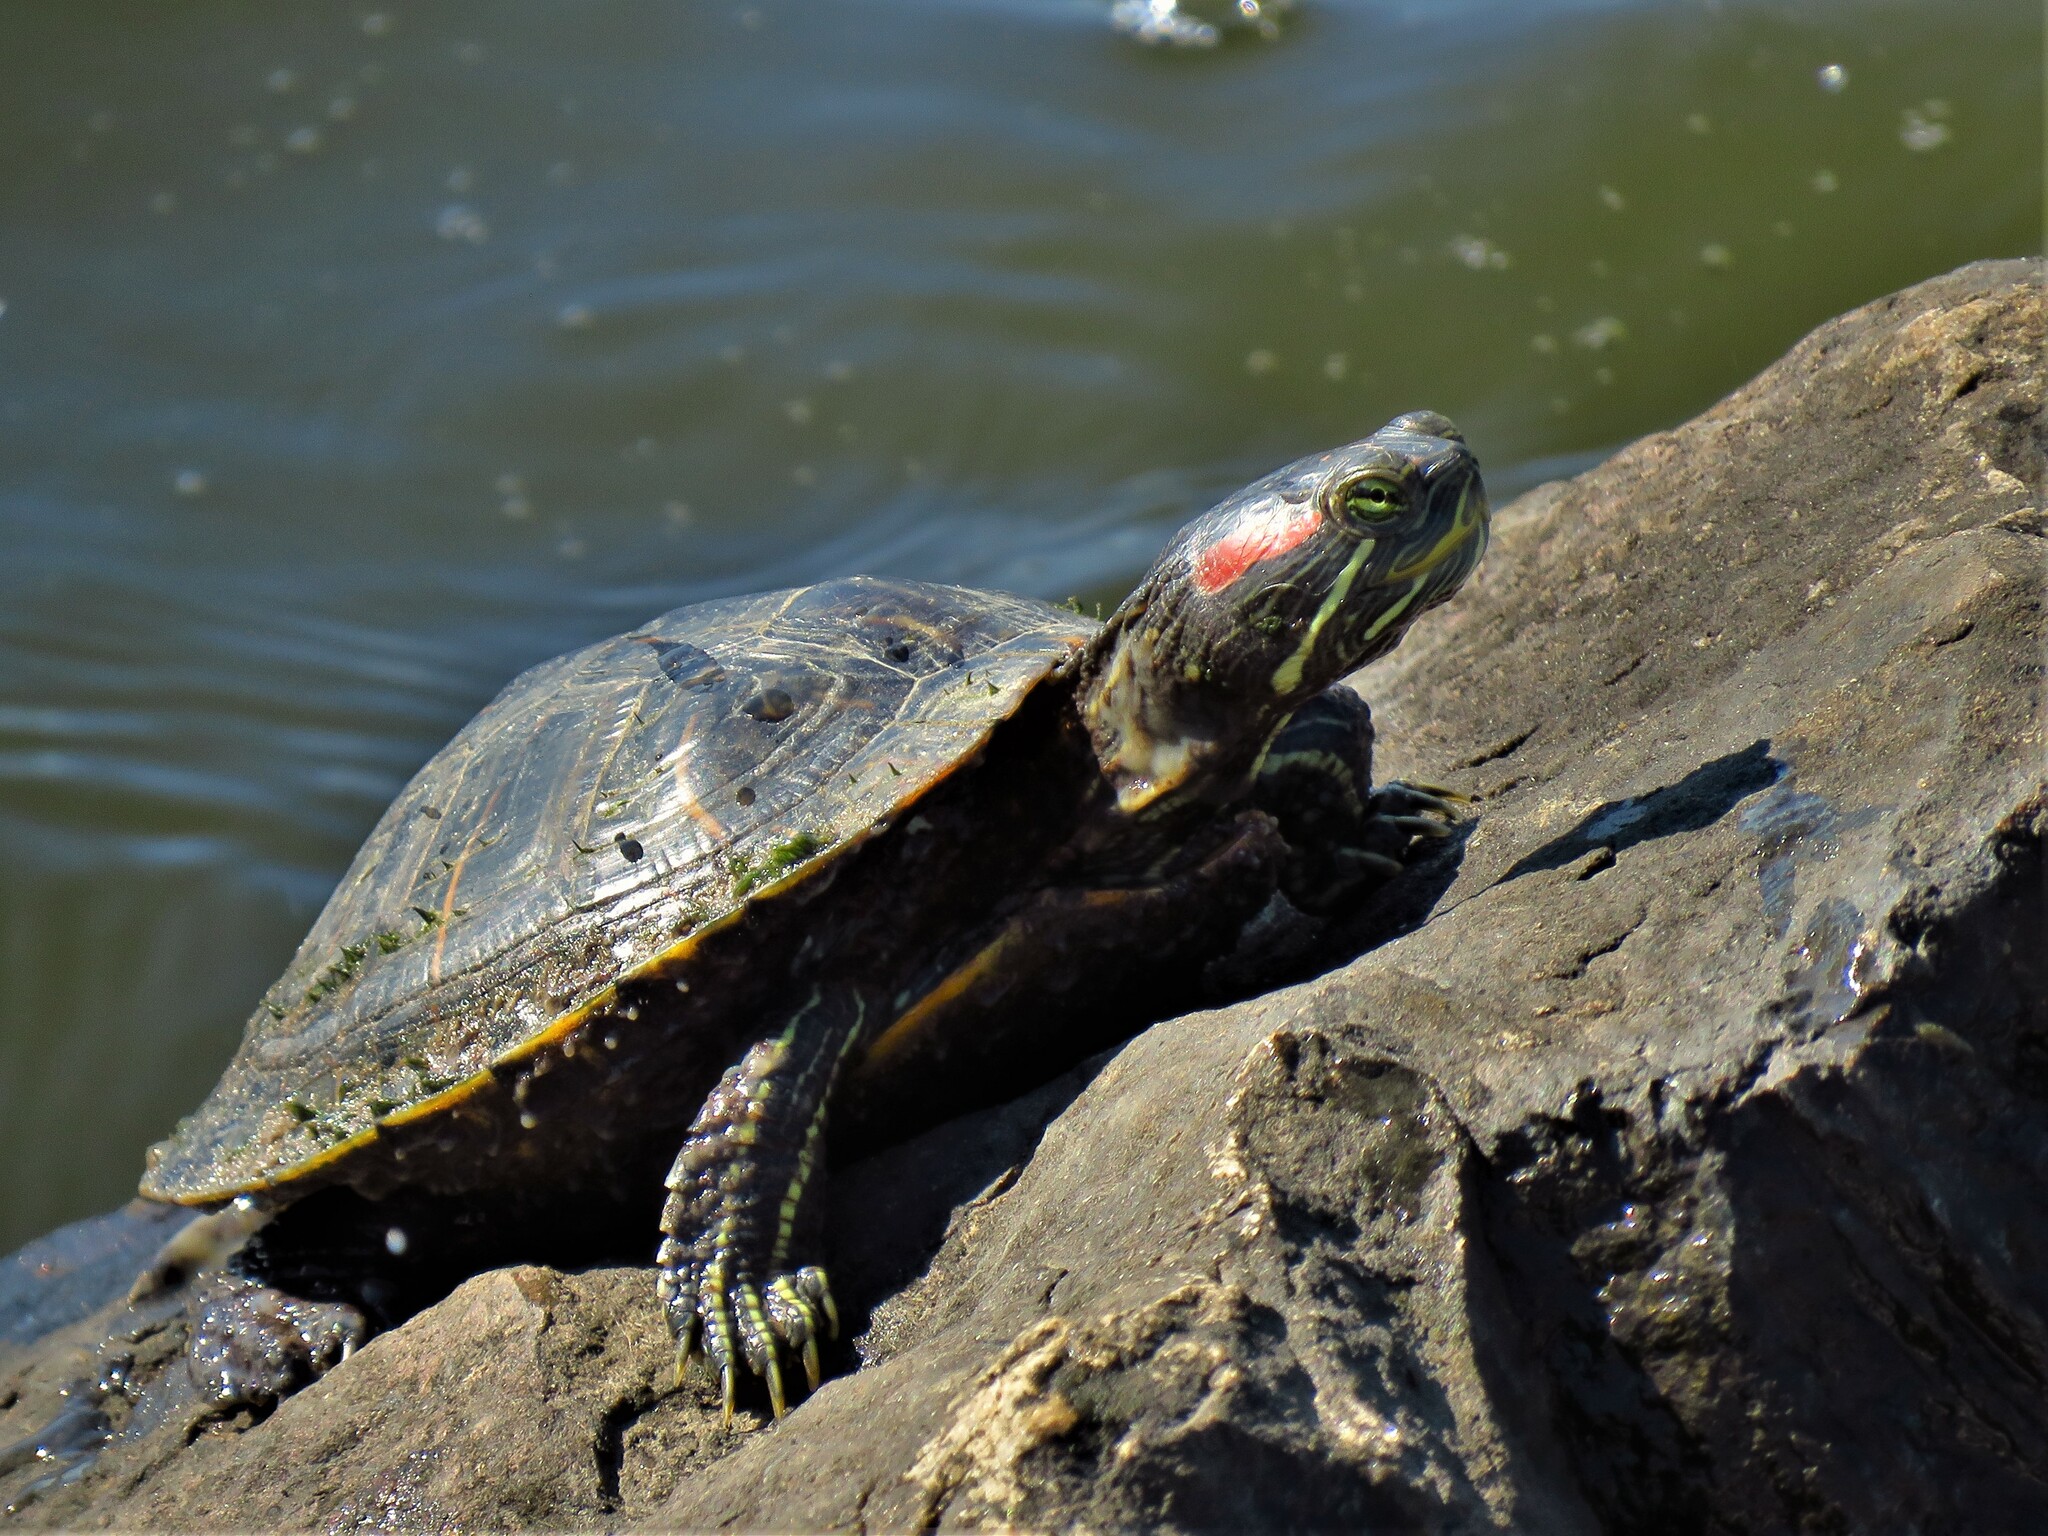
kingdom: Animalia
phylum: Chordata
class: Testudines
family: Emydidae
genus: Trachemys
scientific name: Trachemys scripta
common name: Slider
